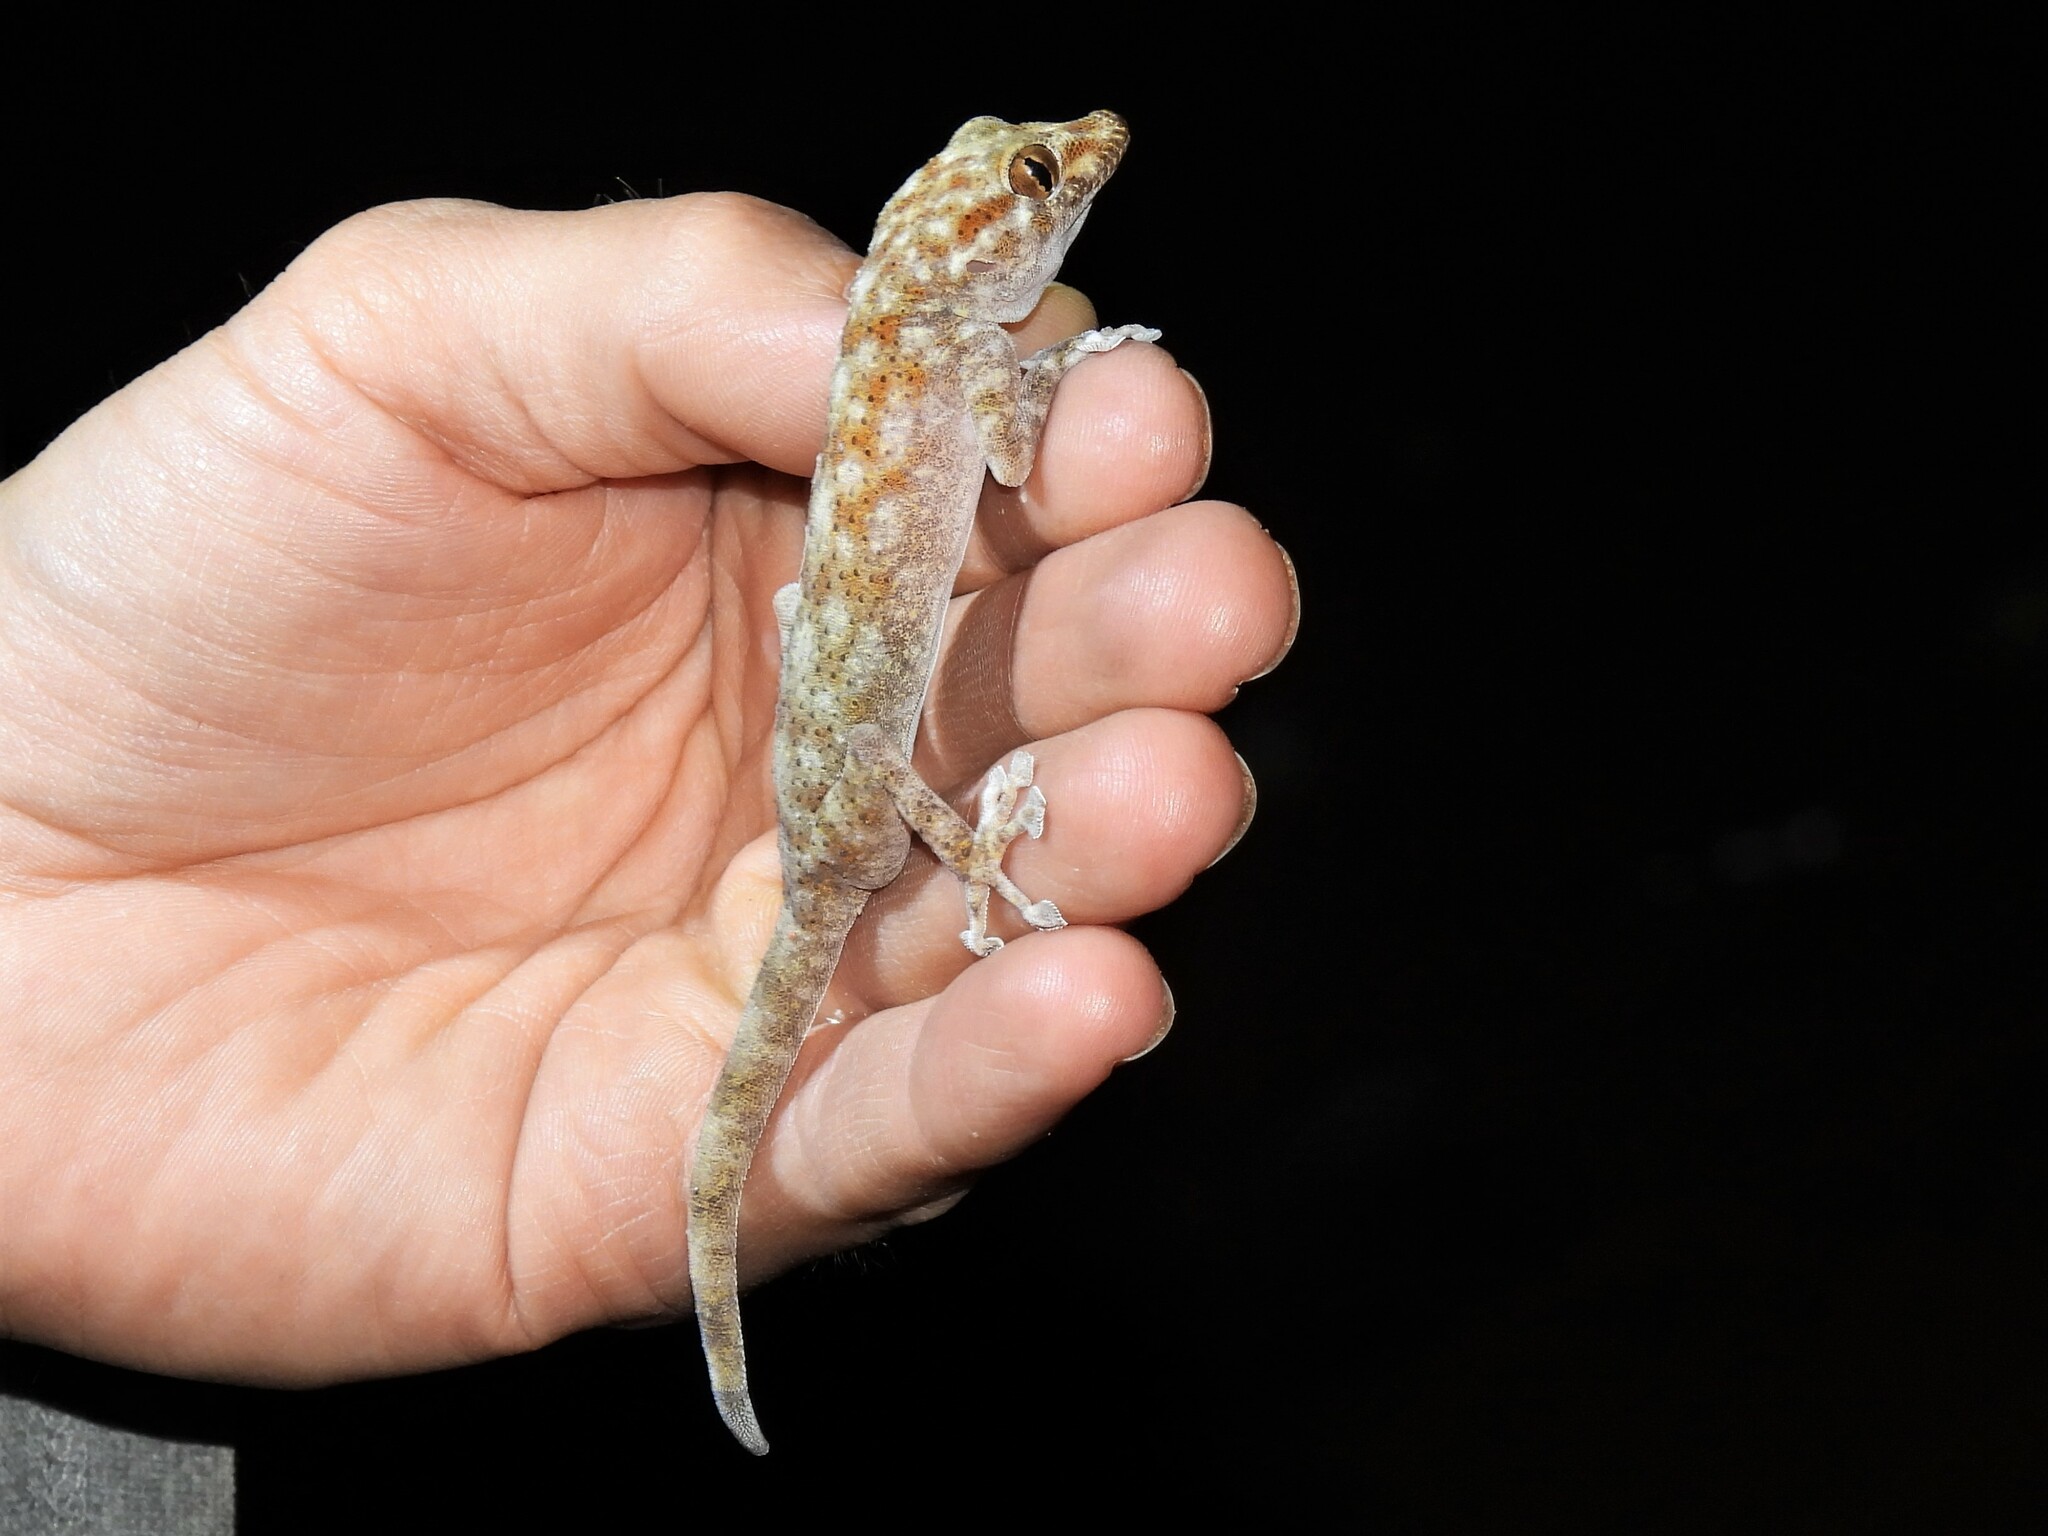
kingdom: Animalia
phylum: Chordata
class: Squamata
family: Phyllodactylidae
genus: Ptyodactylus
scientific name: Ptyodactylus hasselquistii
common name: Hasselquist’s fan-footed gecko
